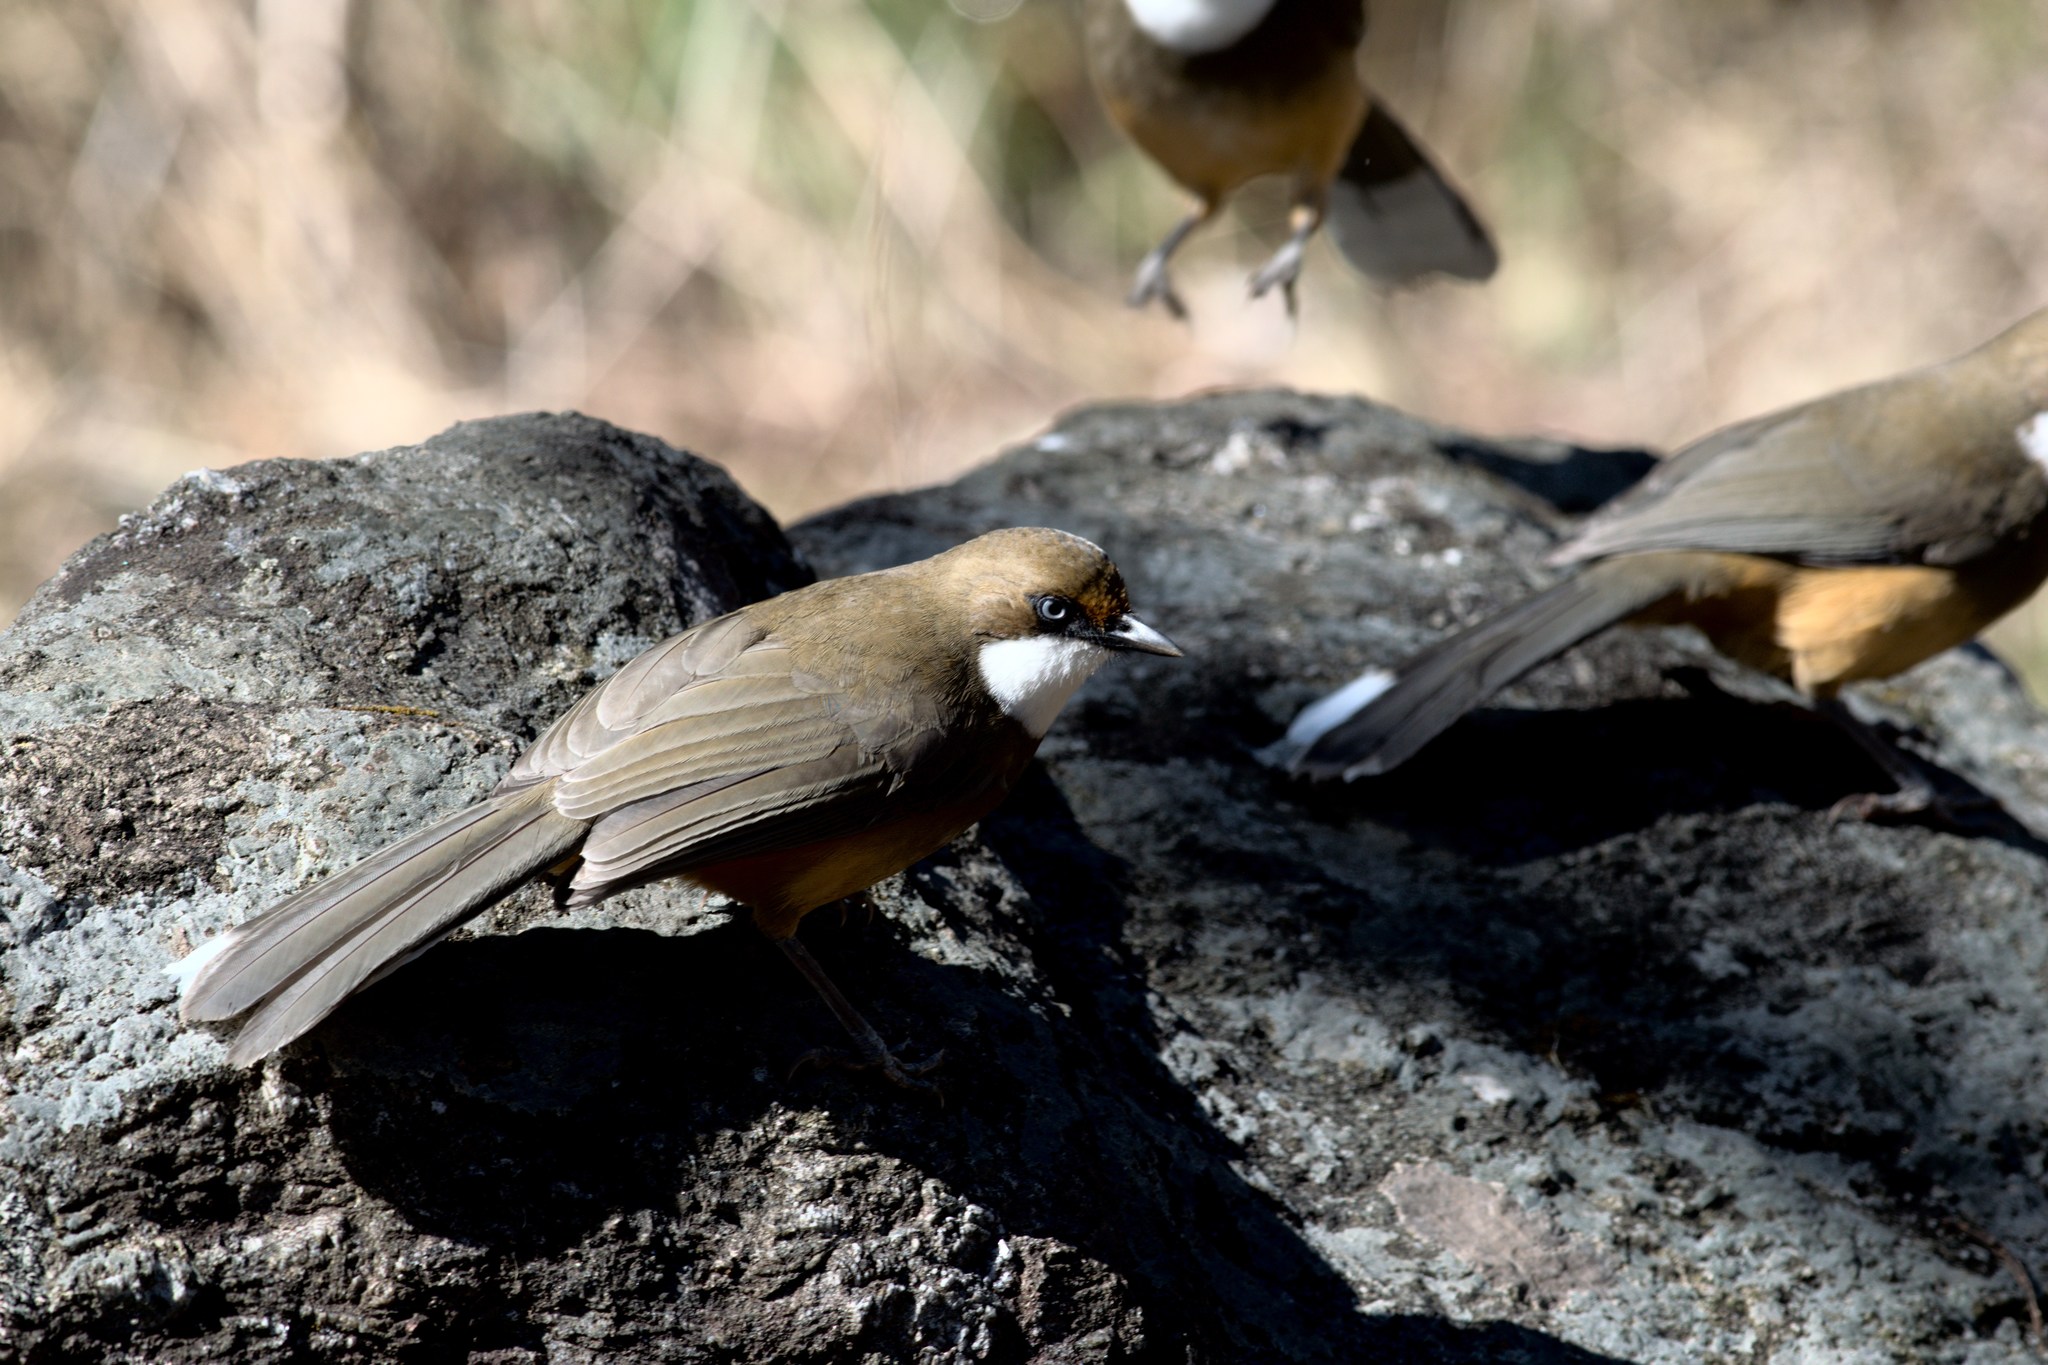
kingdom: Animalia
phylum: Chordata
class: Aves
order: Passeriformes
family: Leiothrichidae
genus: Garrulax
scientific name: Garrulax albogularis
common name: White-throated laughingthrush
